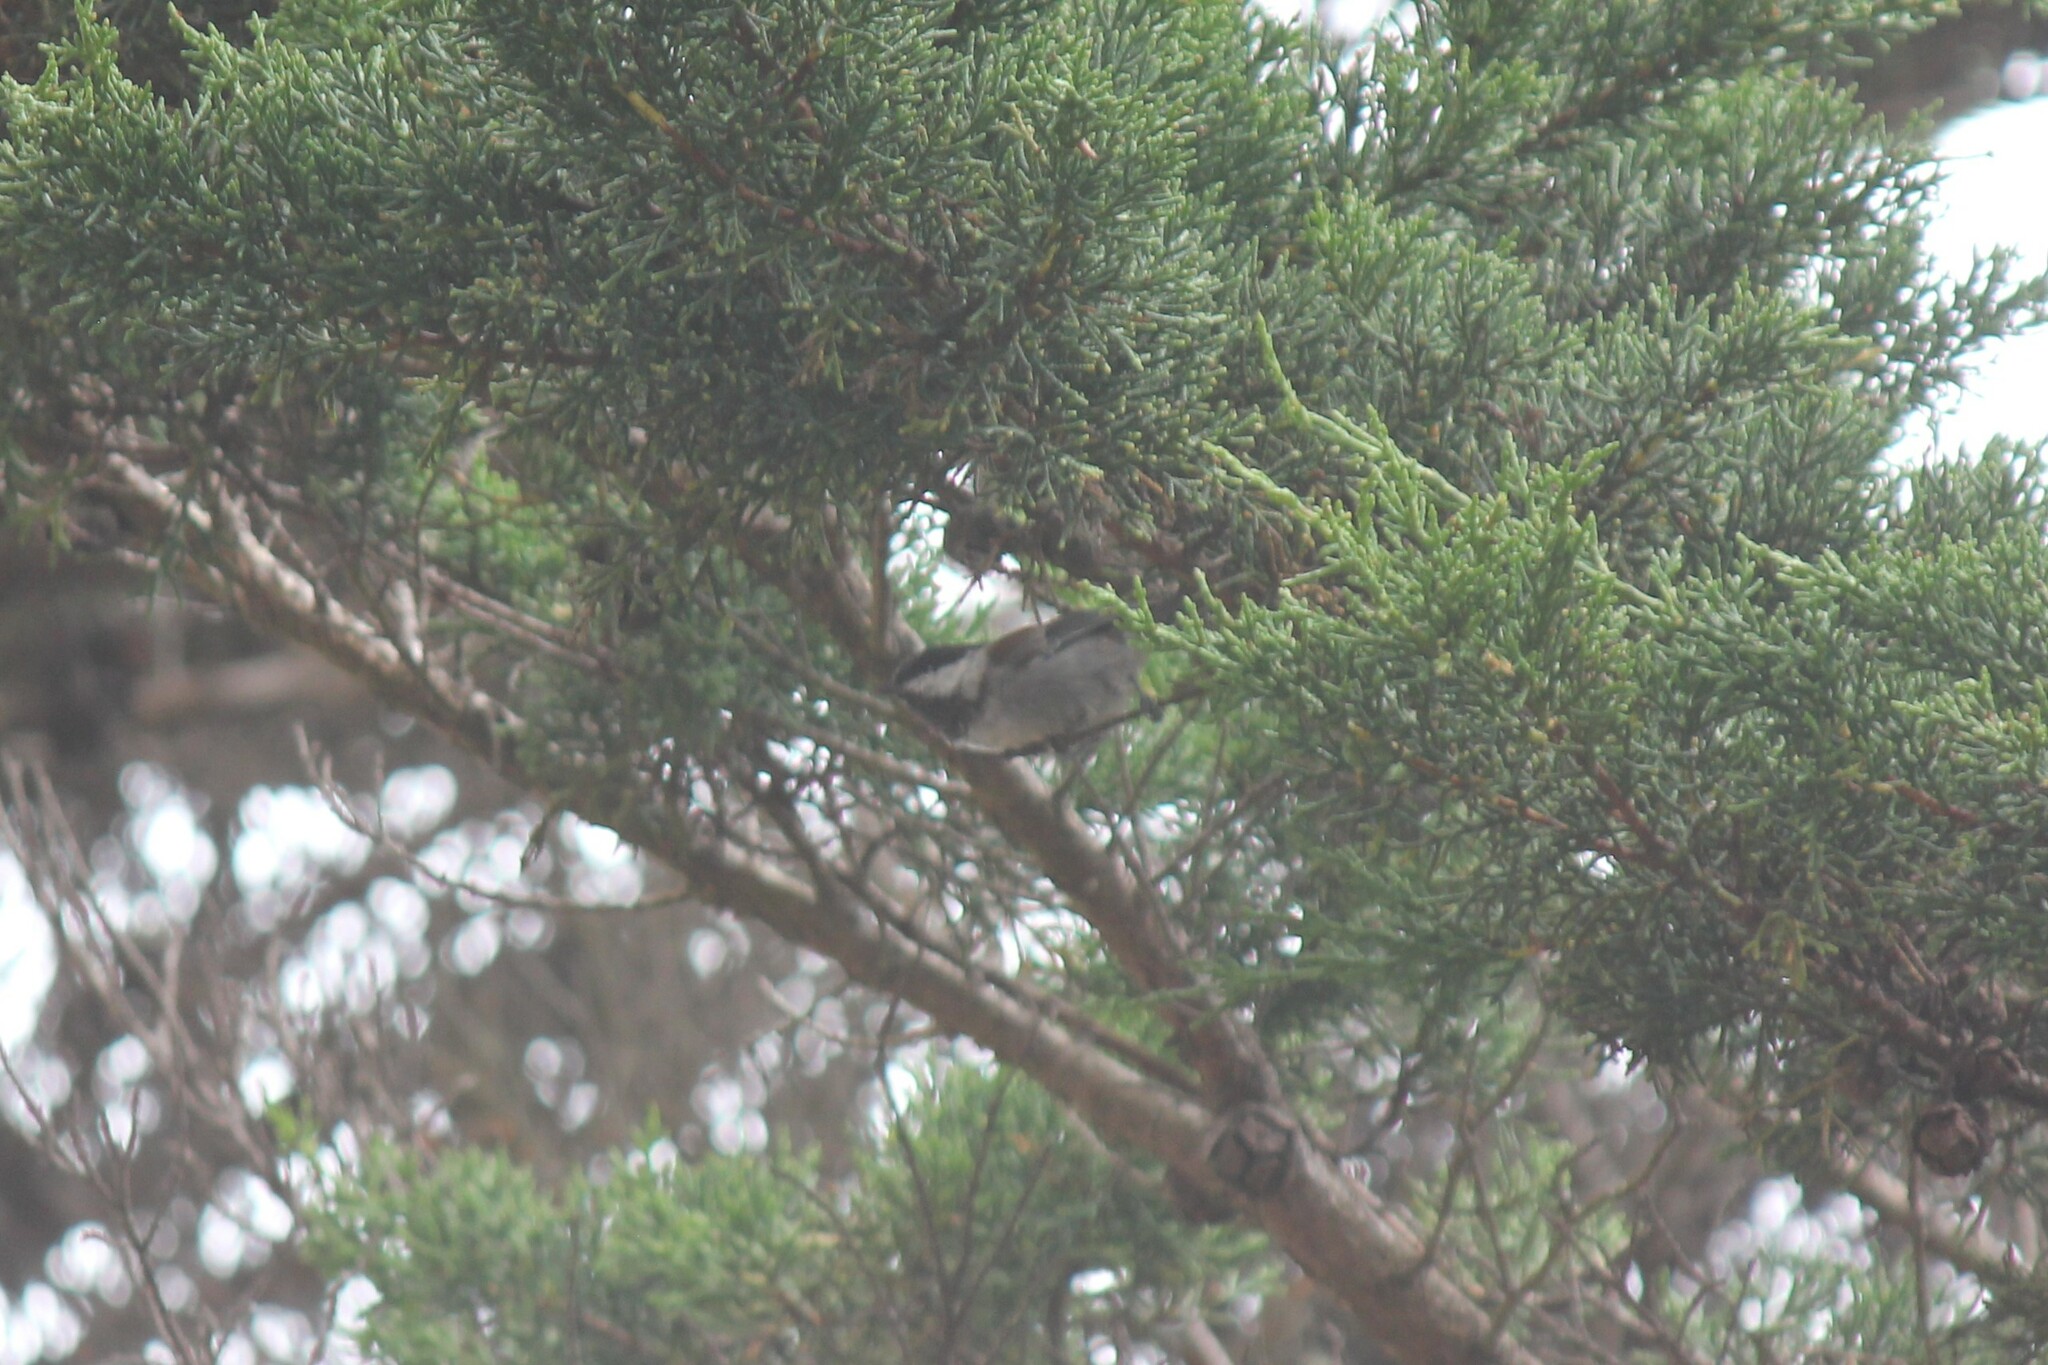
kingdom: Animalia
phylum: Chordata
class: Aves
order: Passeriformes
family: Paridae
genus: Poecile
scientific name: Poecile rufescens
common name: Chestnut-backed chickadee
